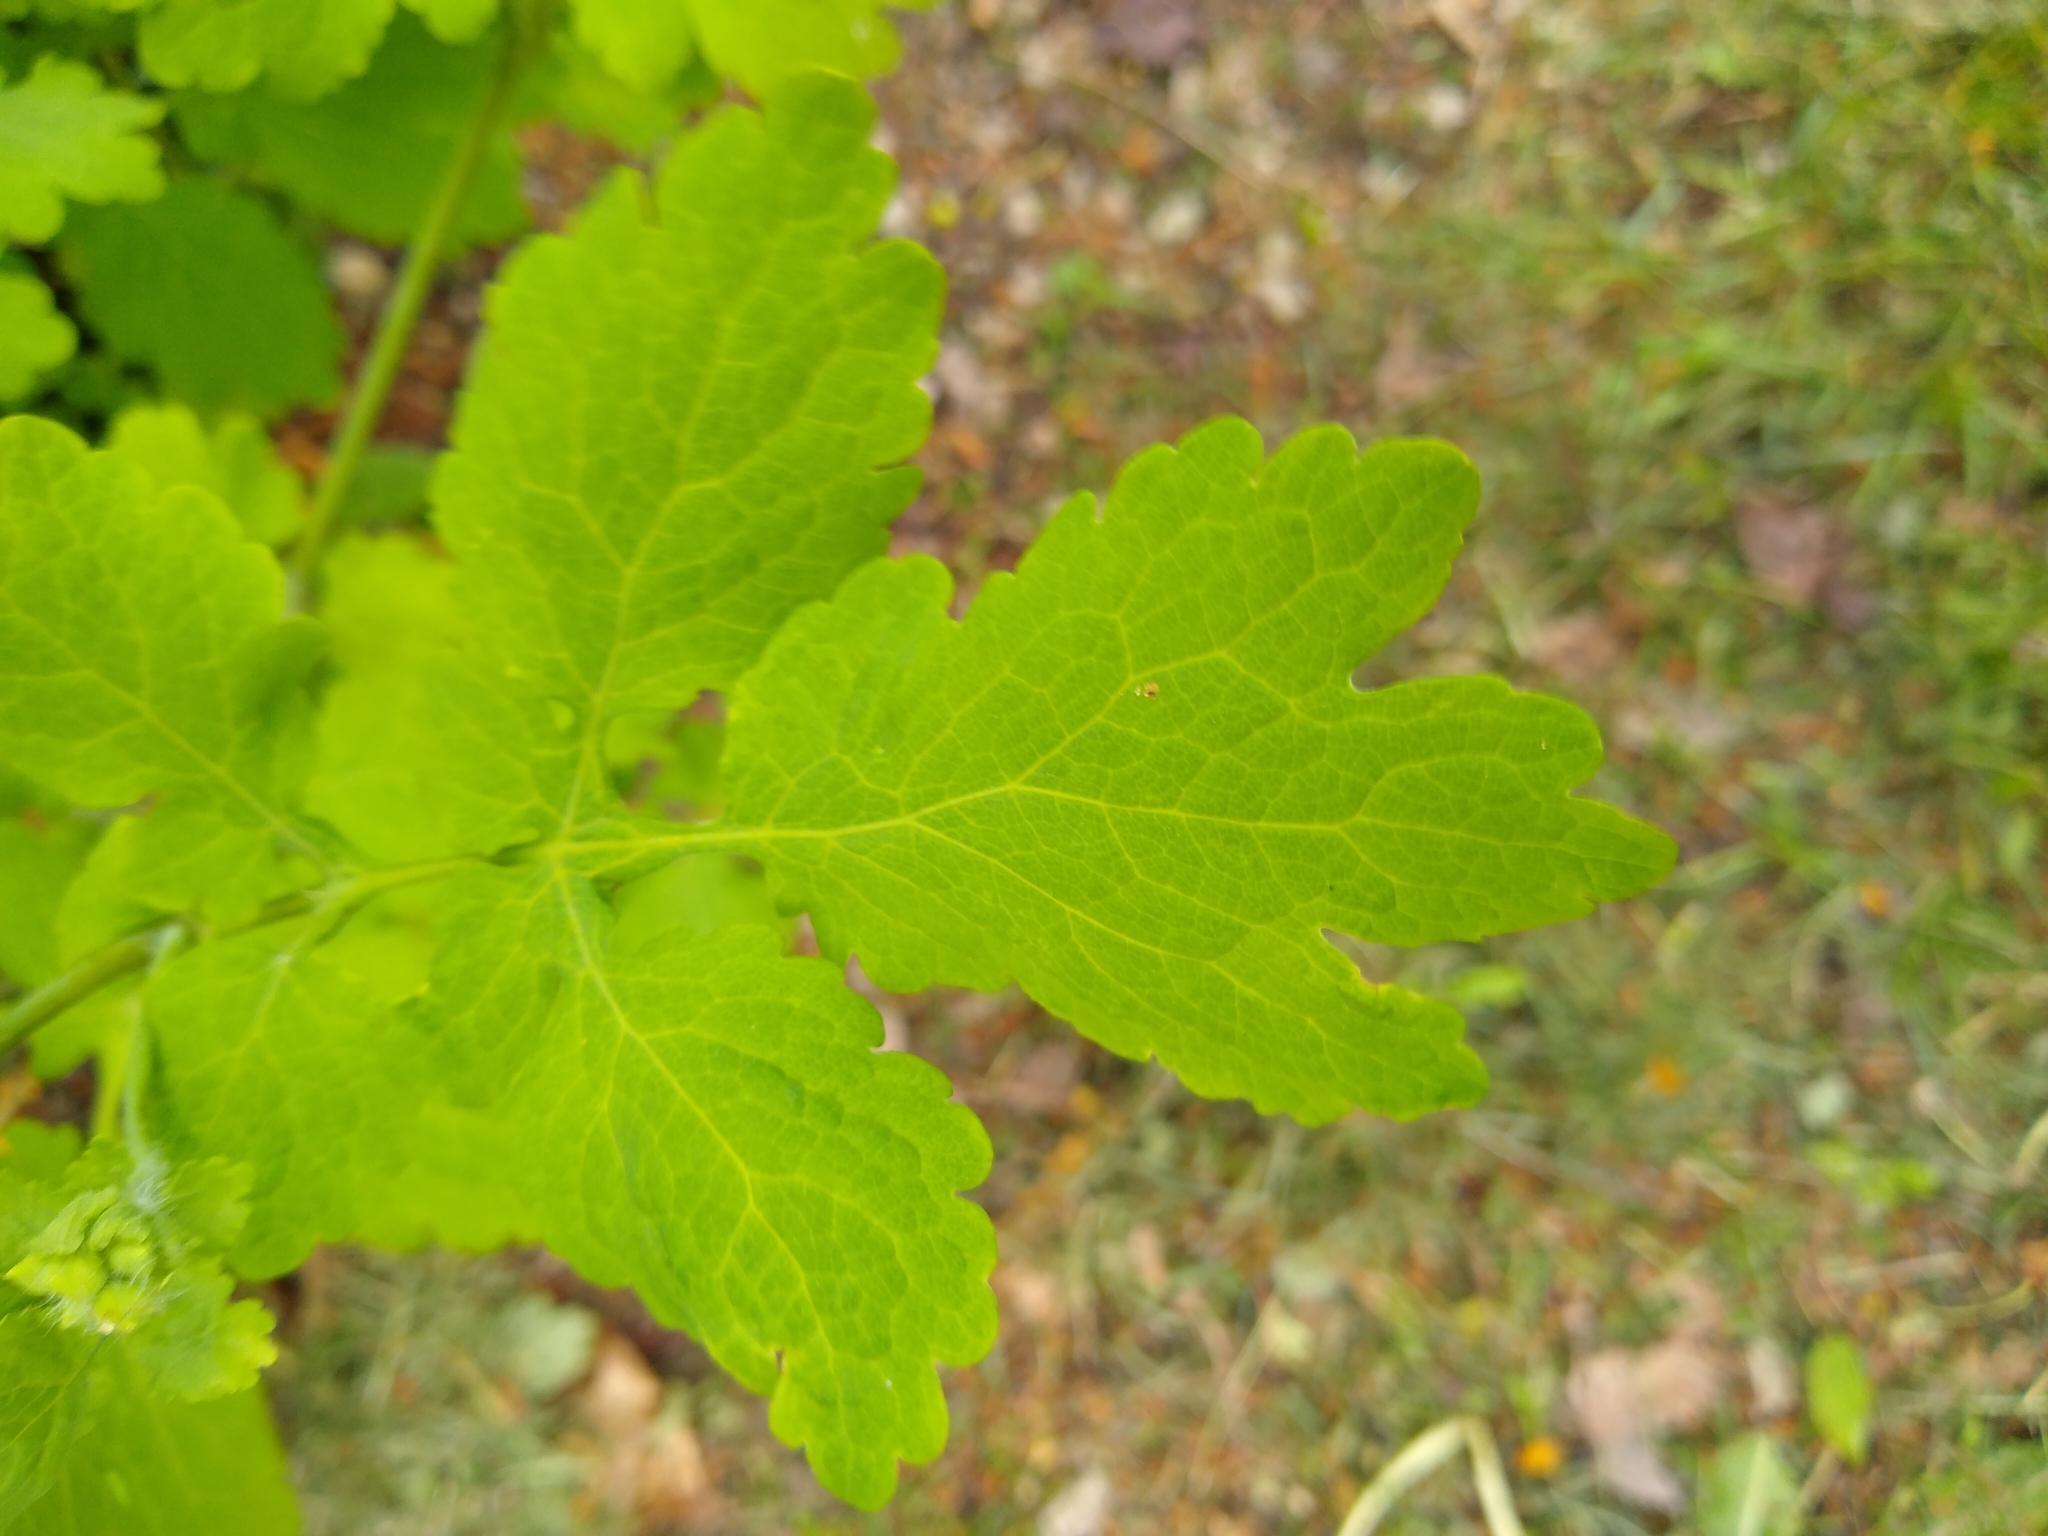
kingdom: Plantae
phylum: Tracheophyta
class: Magnoliopsida
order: Ranunculales
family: Papaveraceae
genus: Chelidonium
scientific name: Chelidonium majus
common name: Greater celandine
